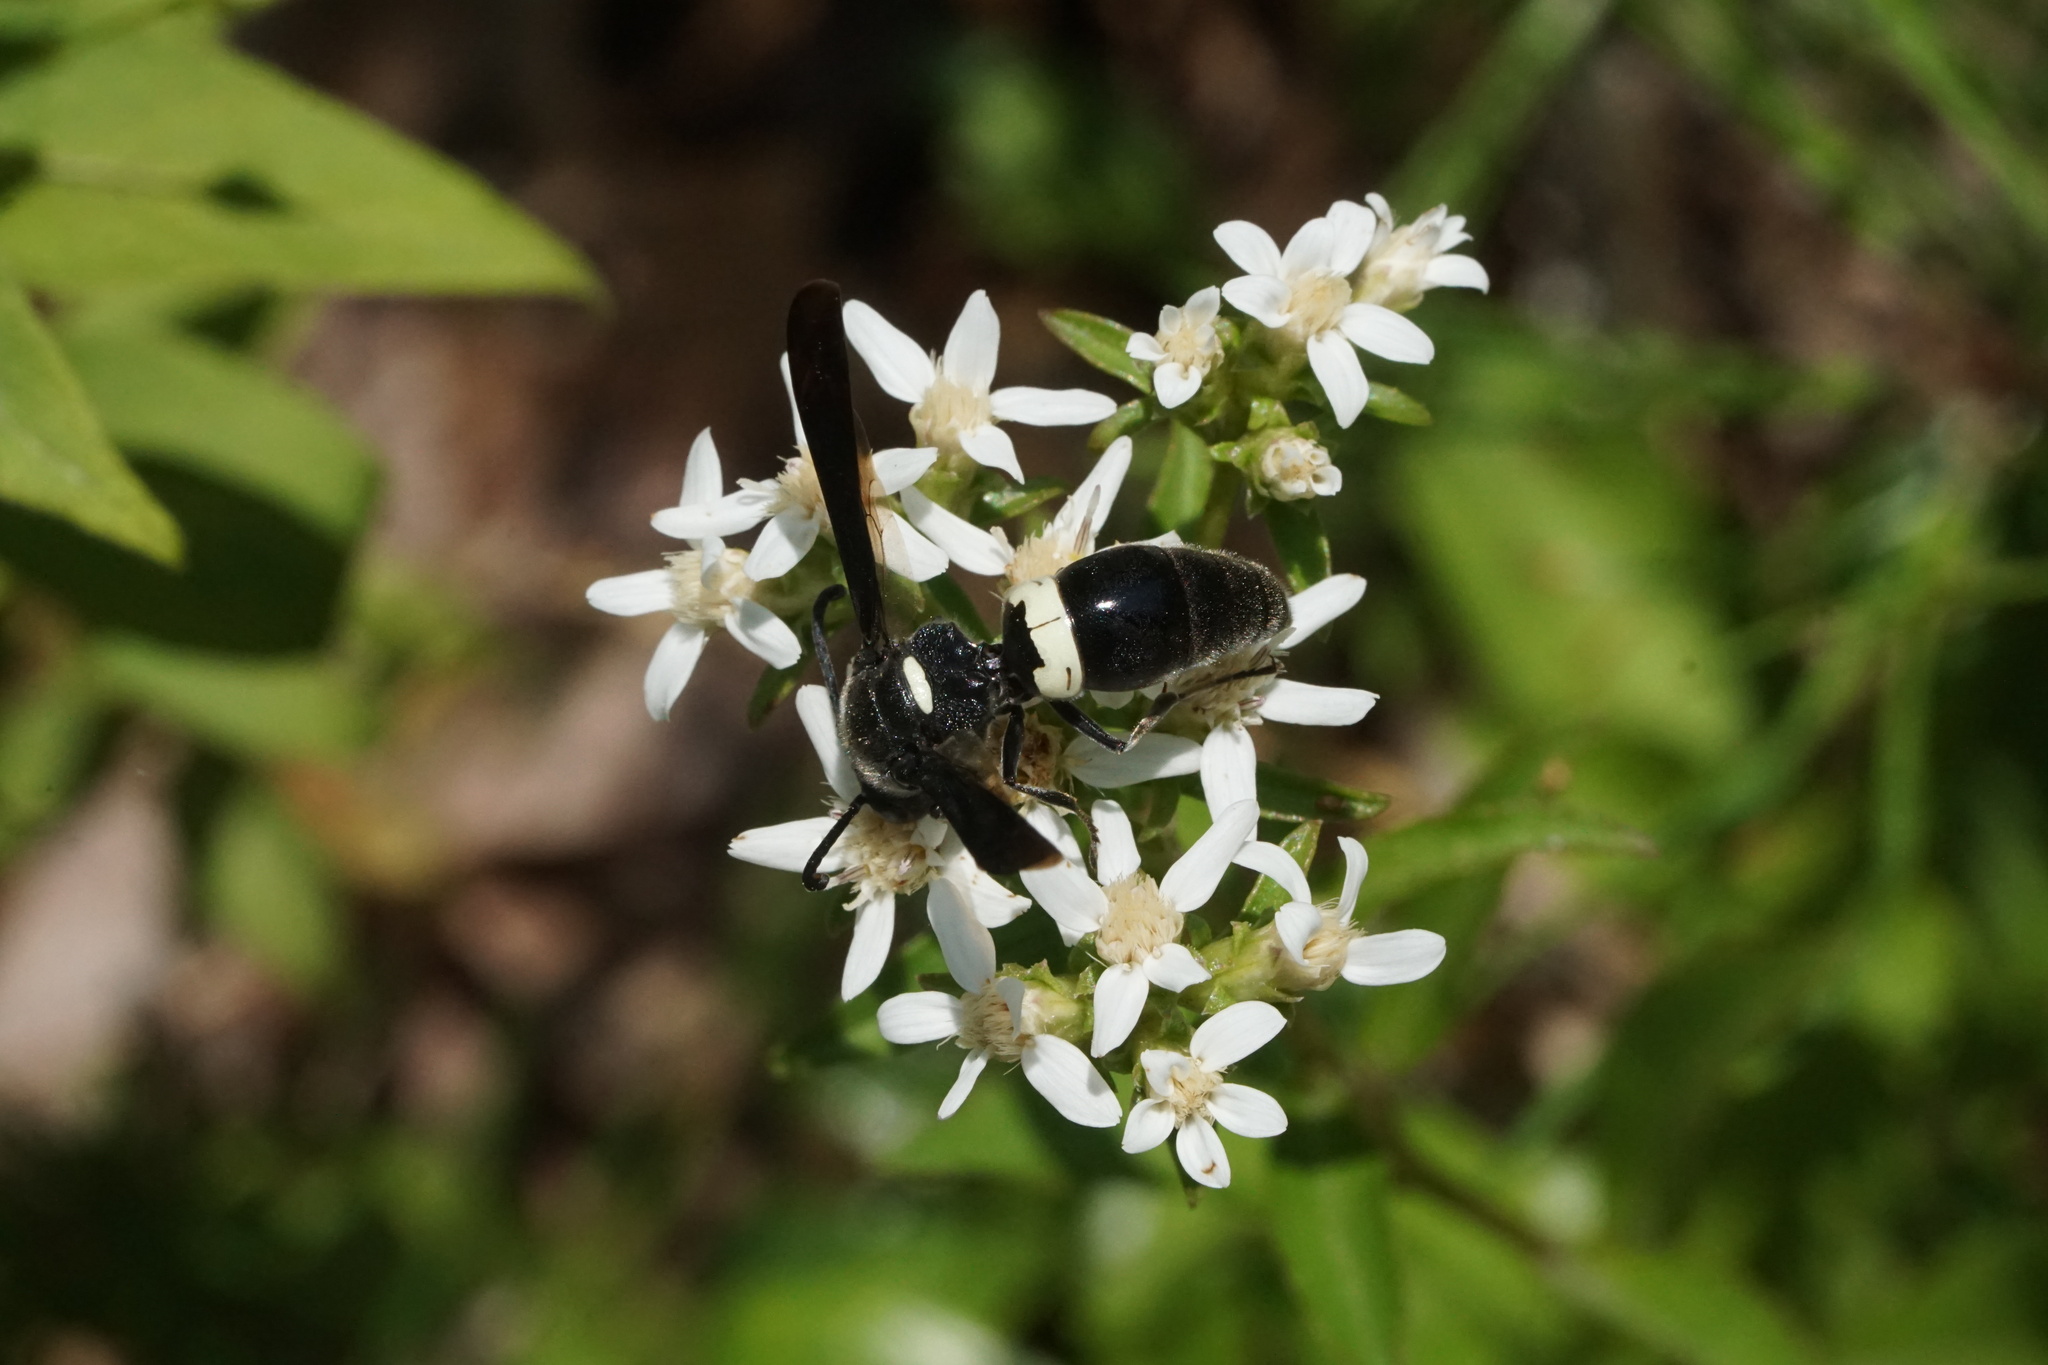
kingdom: Animalia
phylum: Arthropoda
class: Insecta
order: Hymenoptera
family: Eumenidae
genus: Monobia
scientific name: Monobia quadridens
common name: Four-toothed mason wasp
